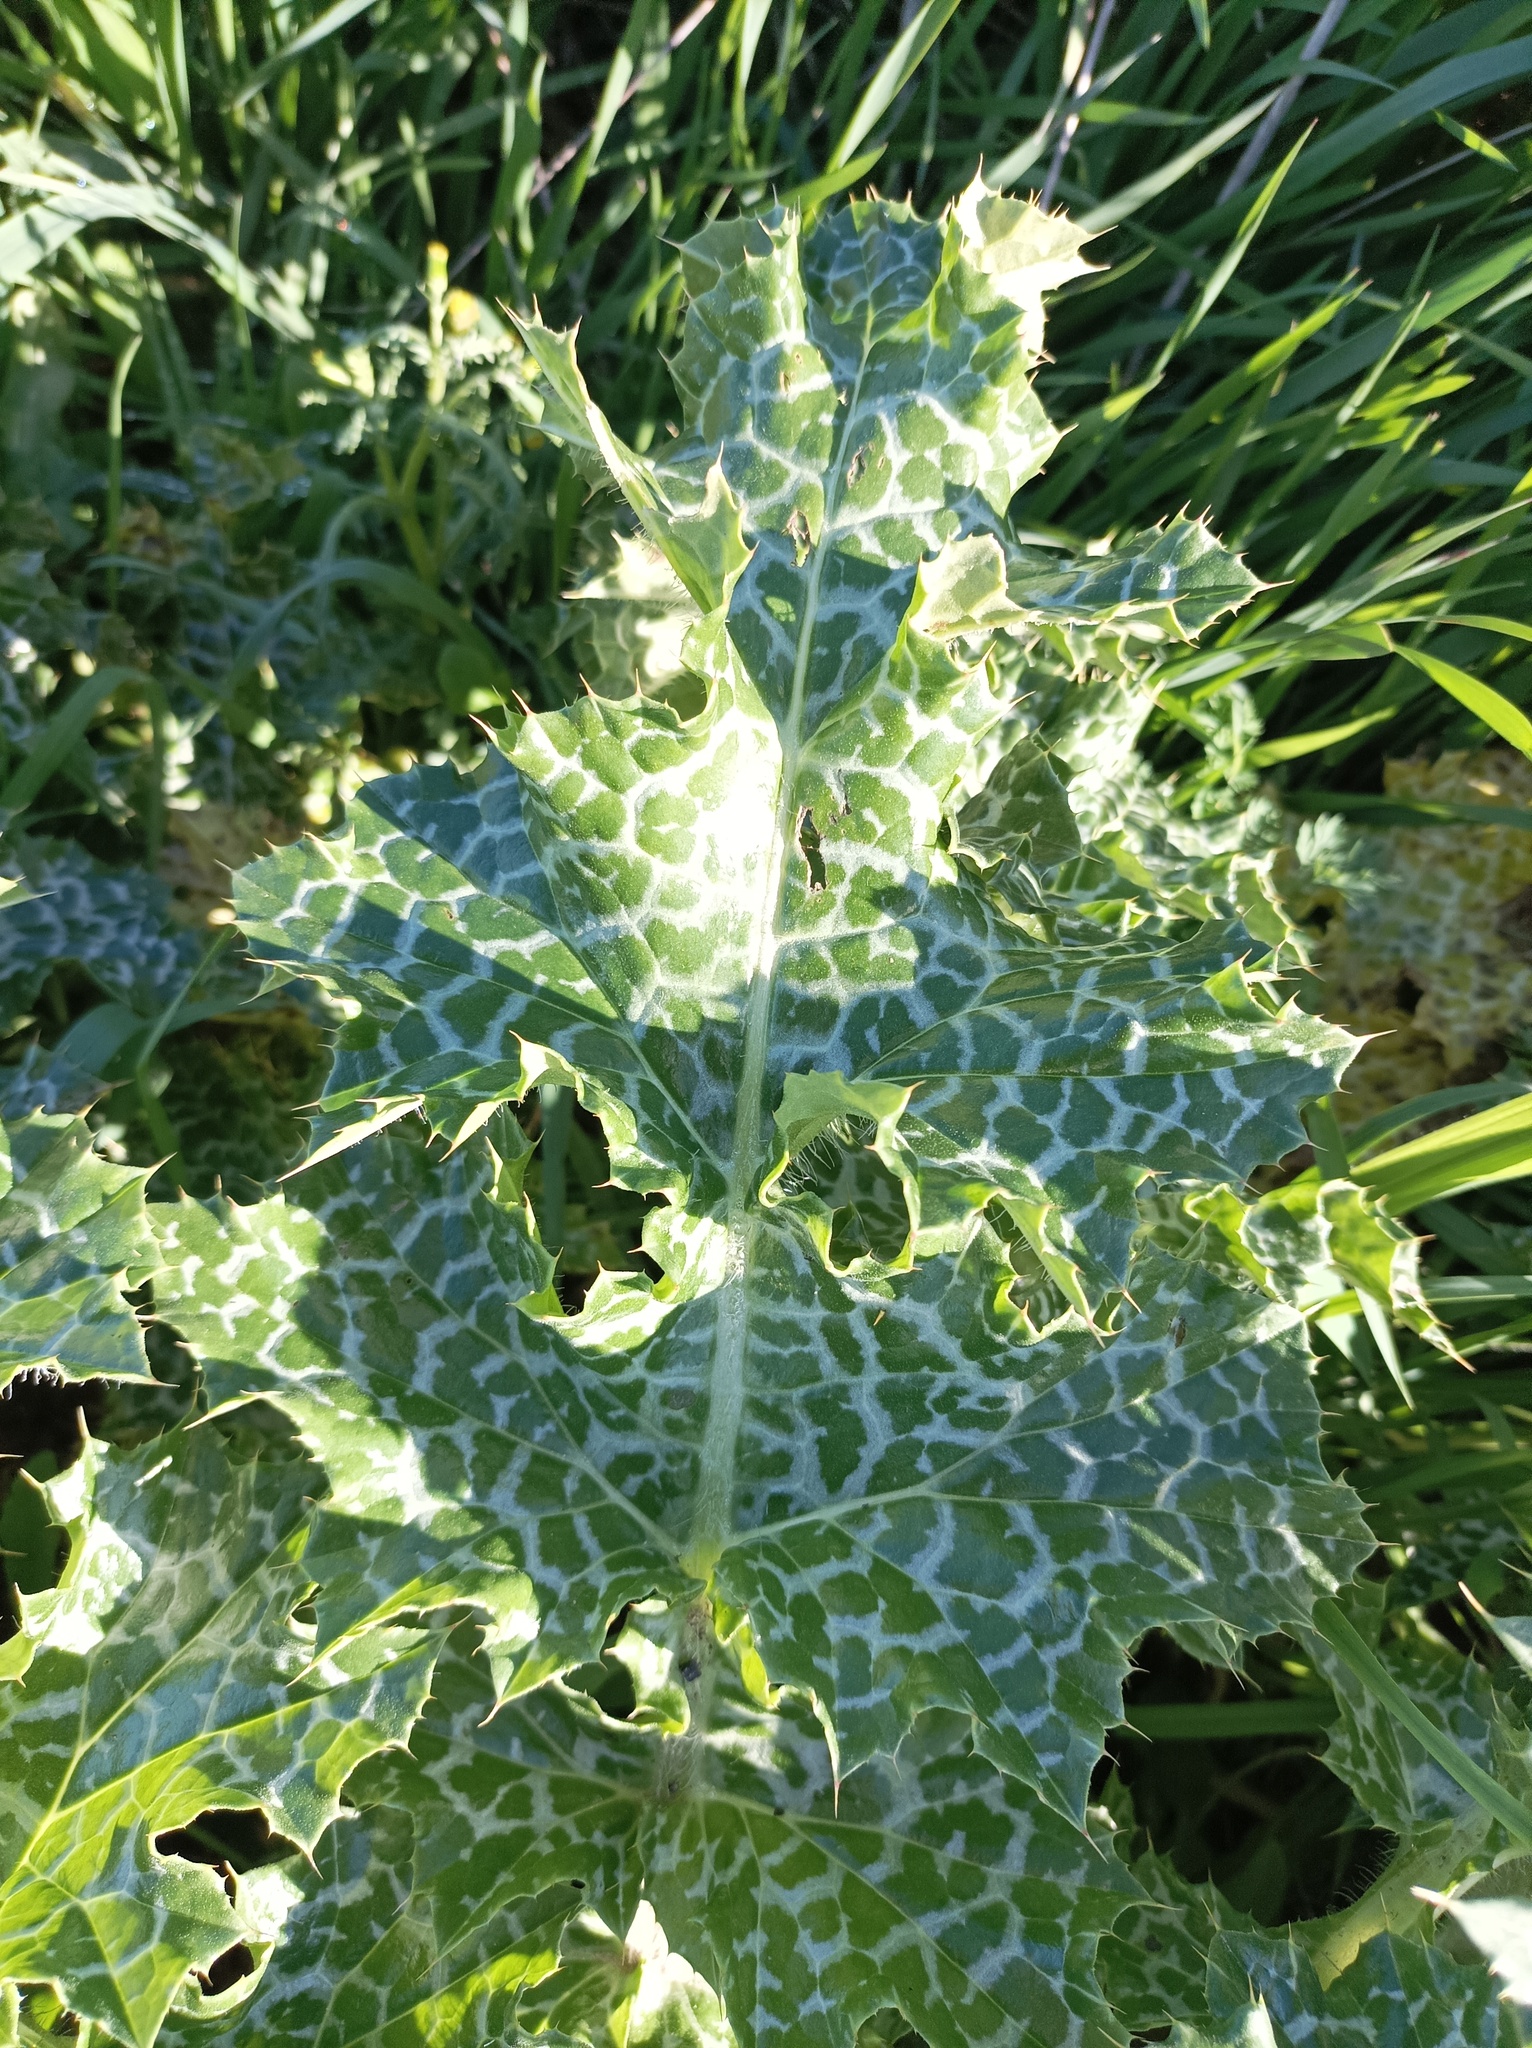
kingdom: Plantae
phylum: Tracheophyta
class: Magnoliopsida
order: Asterales
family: Asteraceae
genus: Silybum
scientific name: Silybum marianum
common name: Milk thistle
